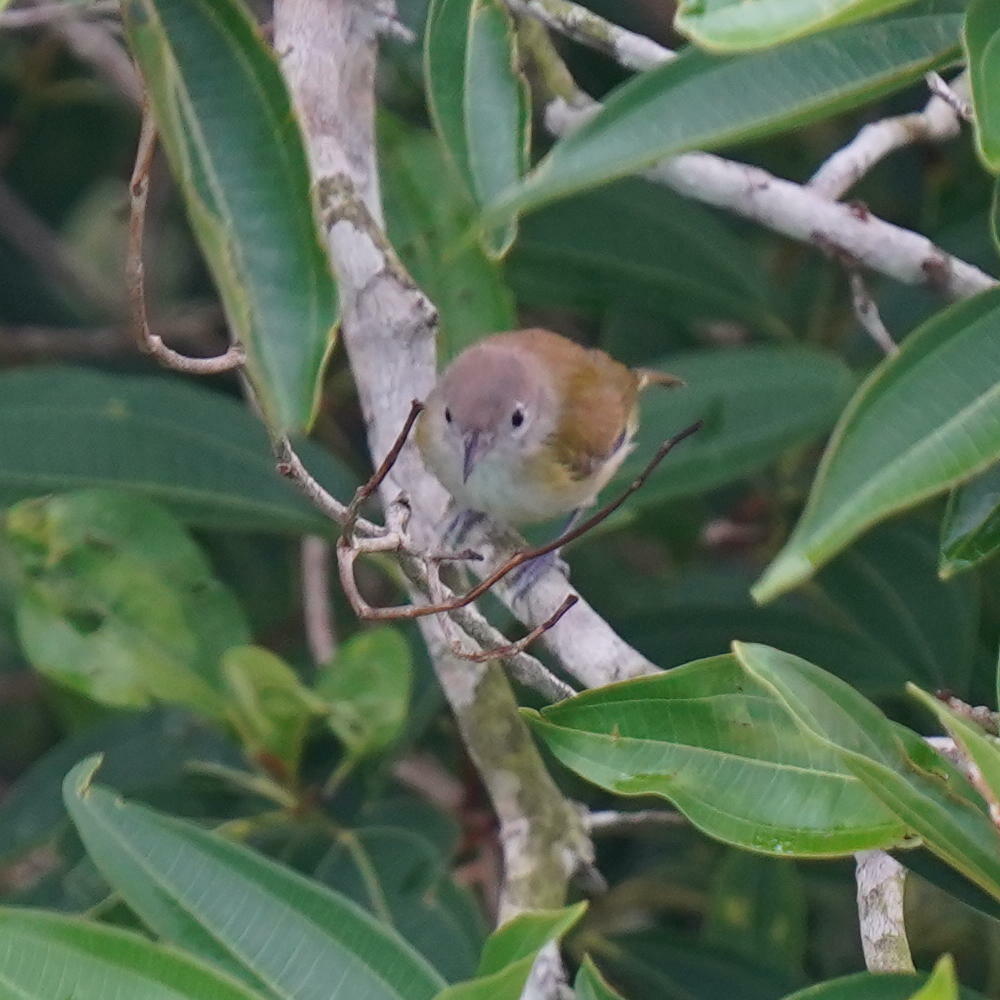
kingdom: Animalia
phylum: Chordata
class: Aves
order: Passeriformes
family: Vireonidae
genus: Hylophilus
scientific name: Hylophilus decurtatus
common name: Lesser greenlet
